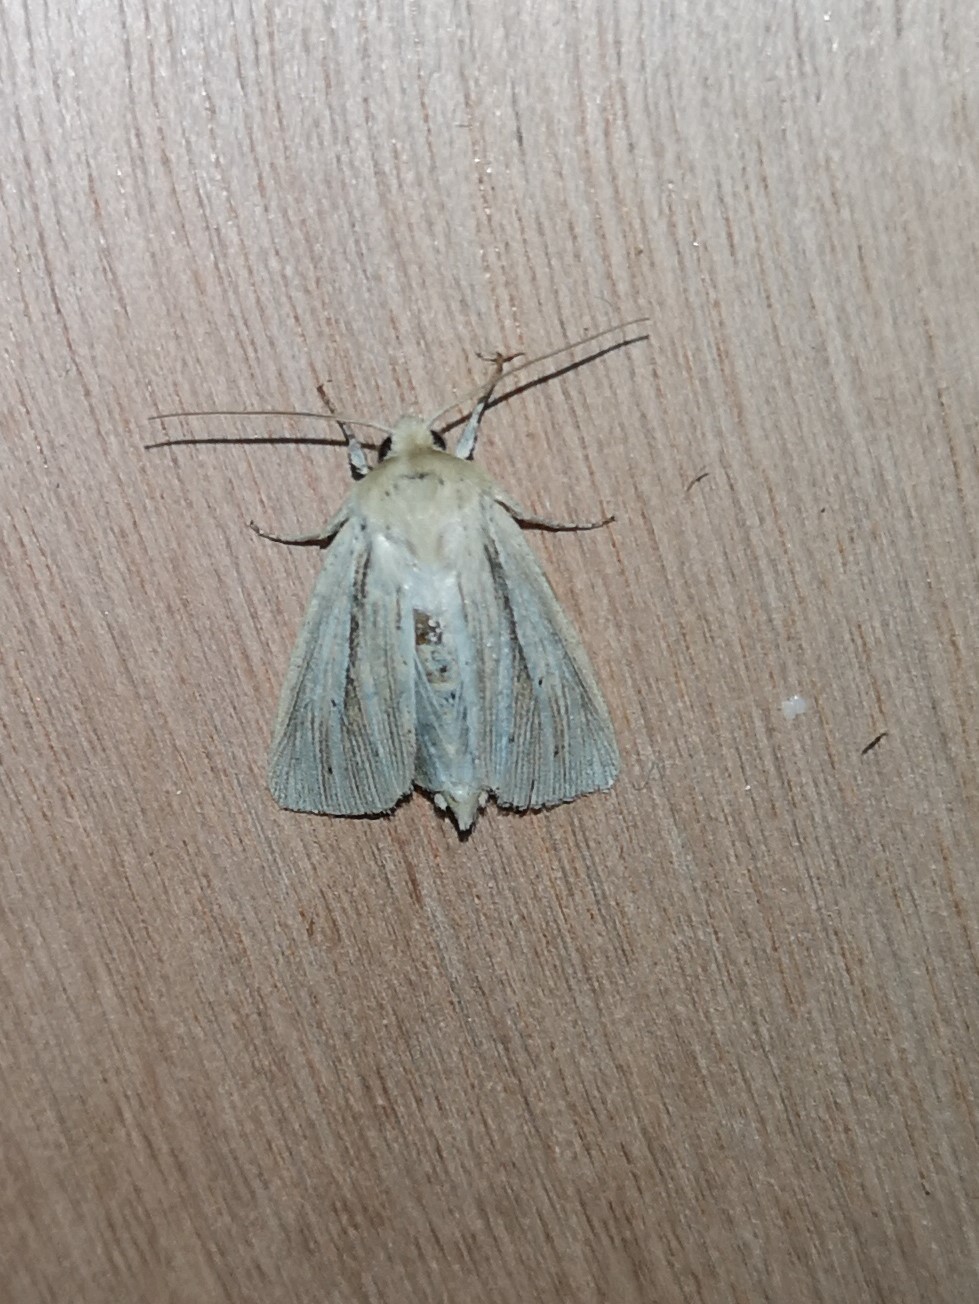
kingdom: Animalia
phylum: Arthropoda
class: Insecta
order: Lepidoptera
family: Noctuidae
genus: Mythimna
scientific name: Mythimna impura
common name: Smoky wainscot
